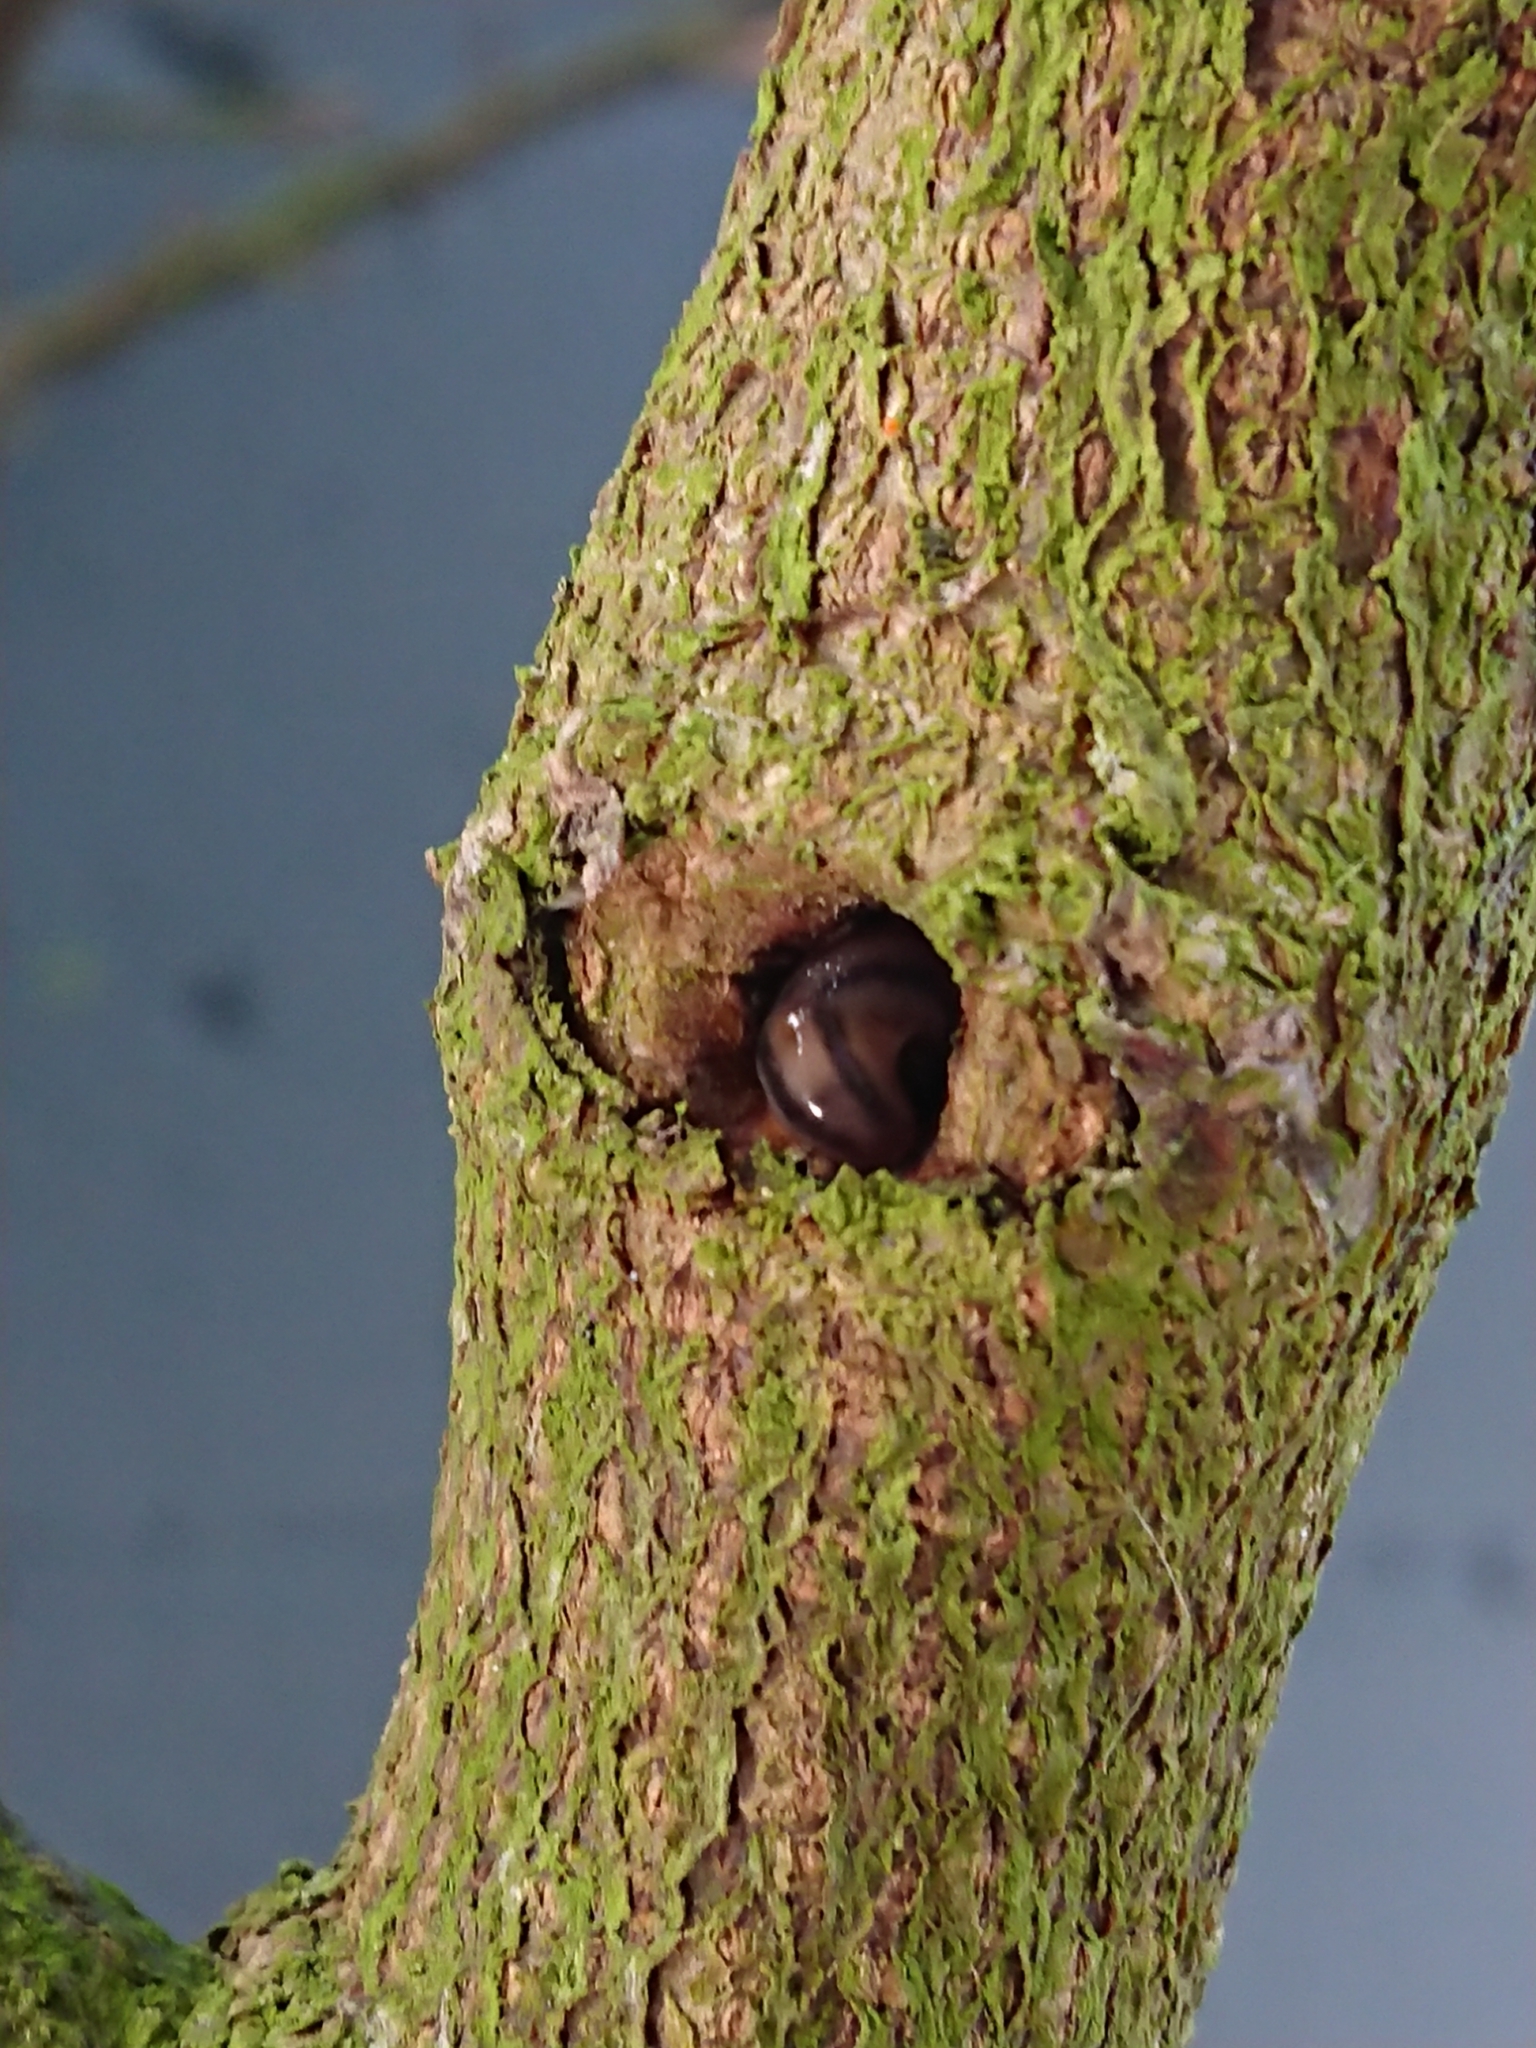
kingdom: Animalia
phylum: Mollusca
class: Gastropoda
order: Stylommatophora
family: Limacidae
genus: Ambigolimax
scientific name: Ambigolimax
